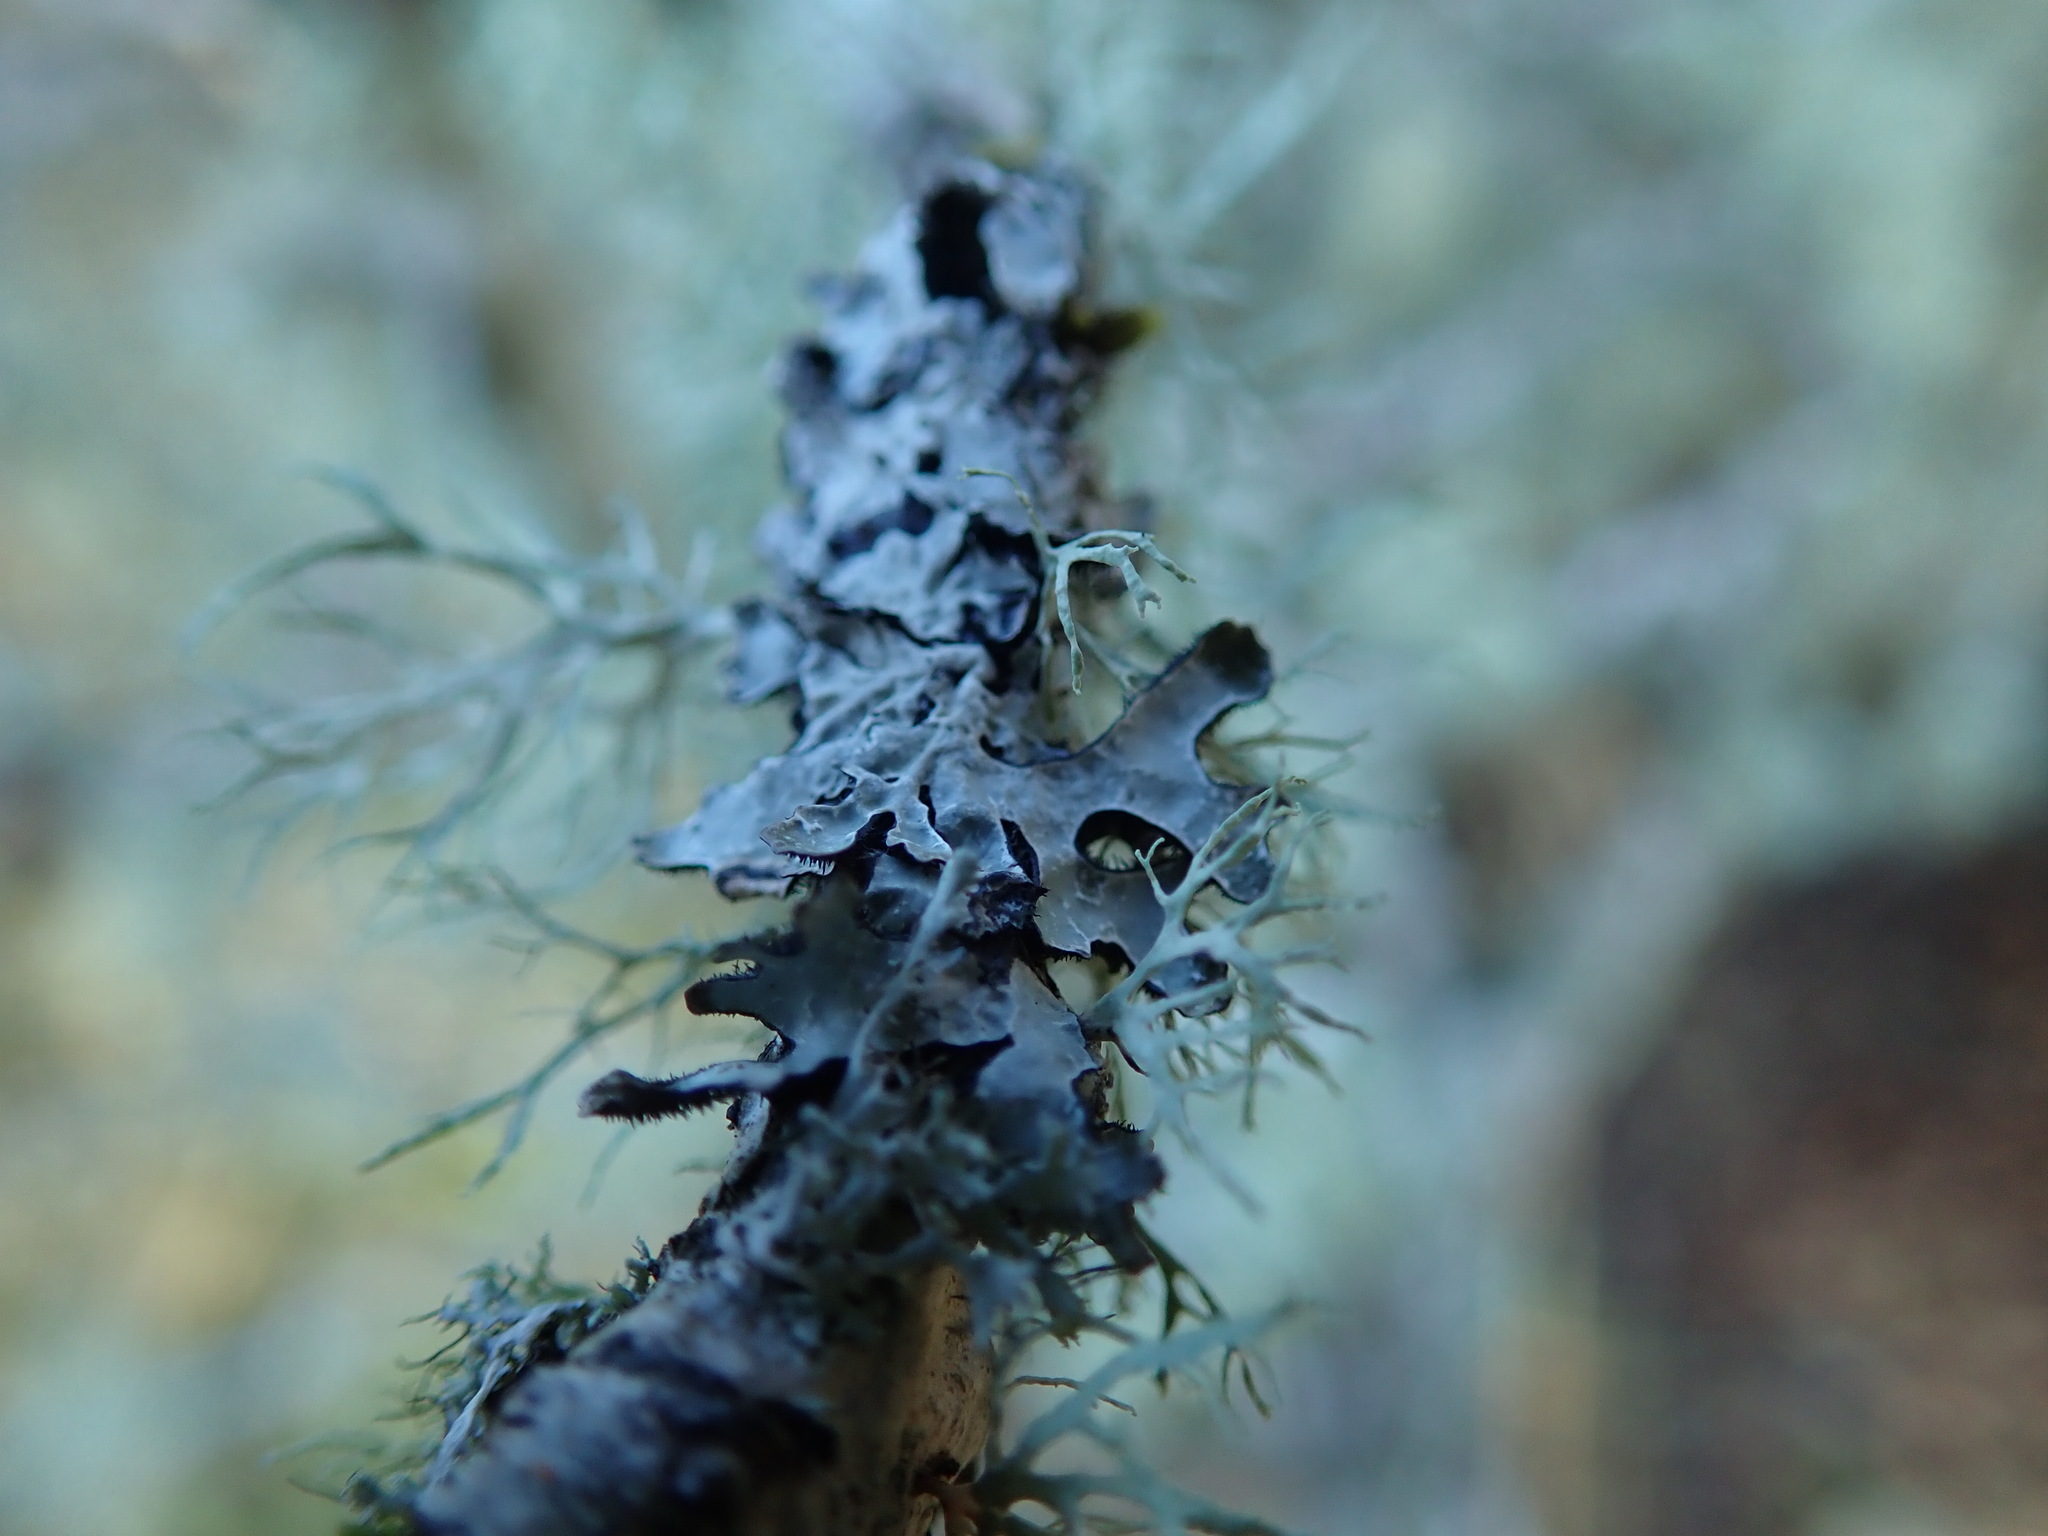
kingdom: Fungi
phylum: Ascomycota
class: Lecanoromycetes
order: Lecanorales
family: Parmeliaceae
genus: Parmelia
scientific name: Parmelia sulcata
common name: Netted shield lichen
